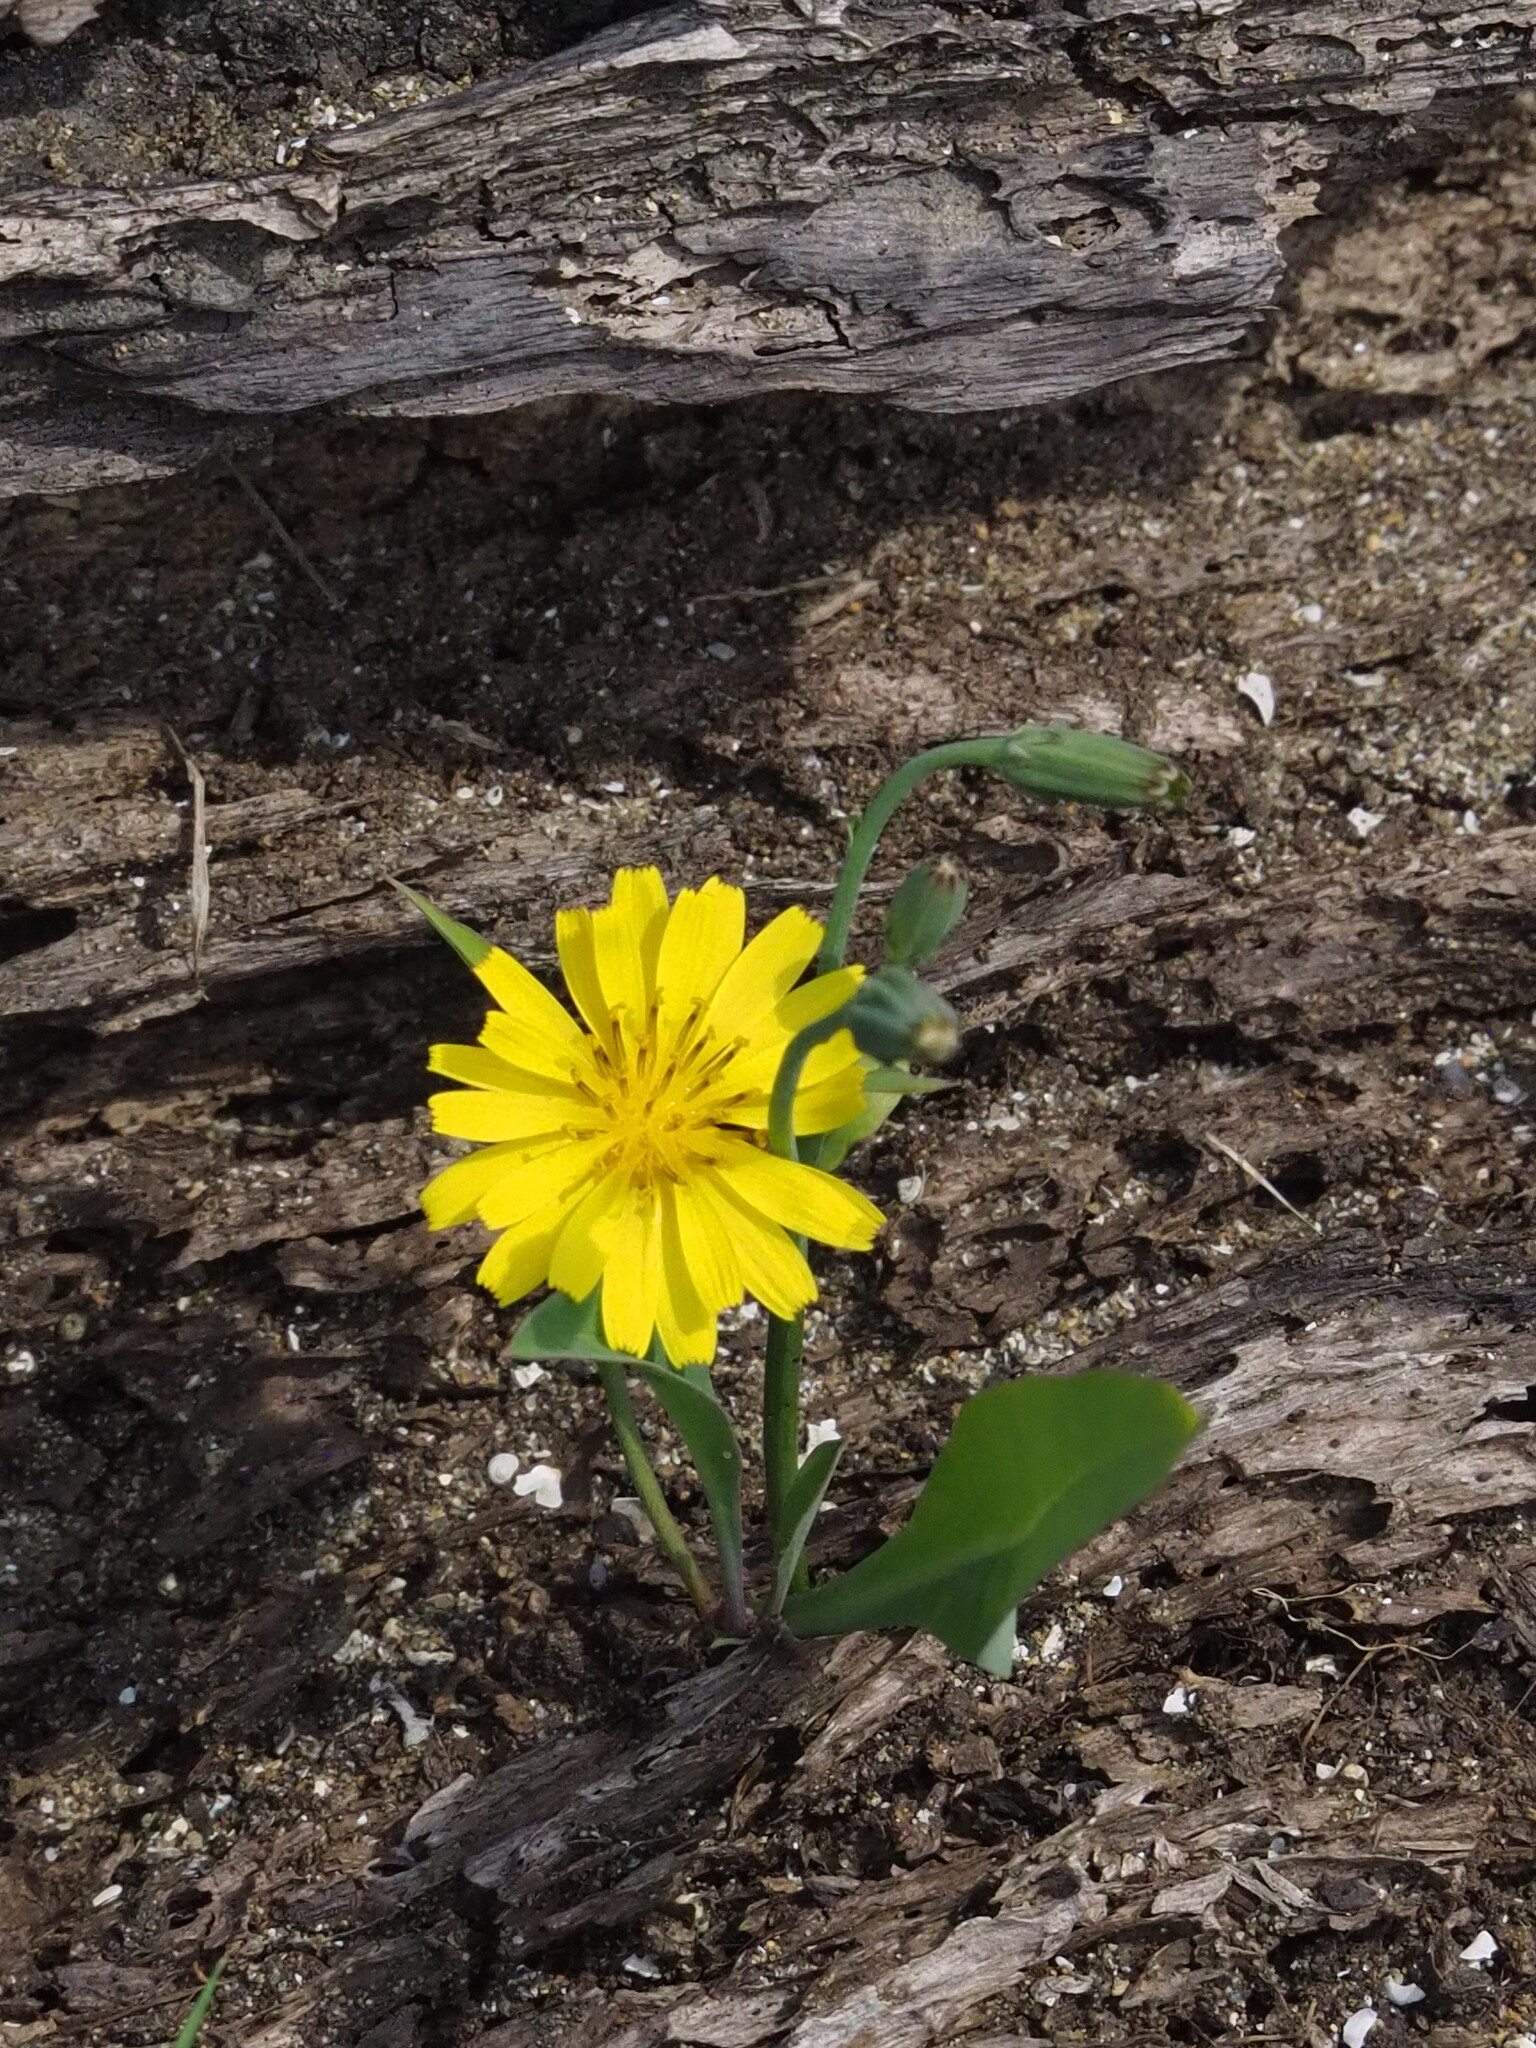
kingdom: Plantae
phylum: Tracheophyta
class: Magnoliopsida
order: Asterales
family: Asteraceae
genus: Ixeris
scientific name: Ixeris japonica
